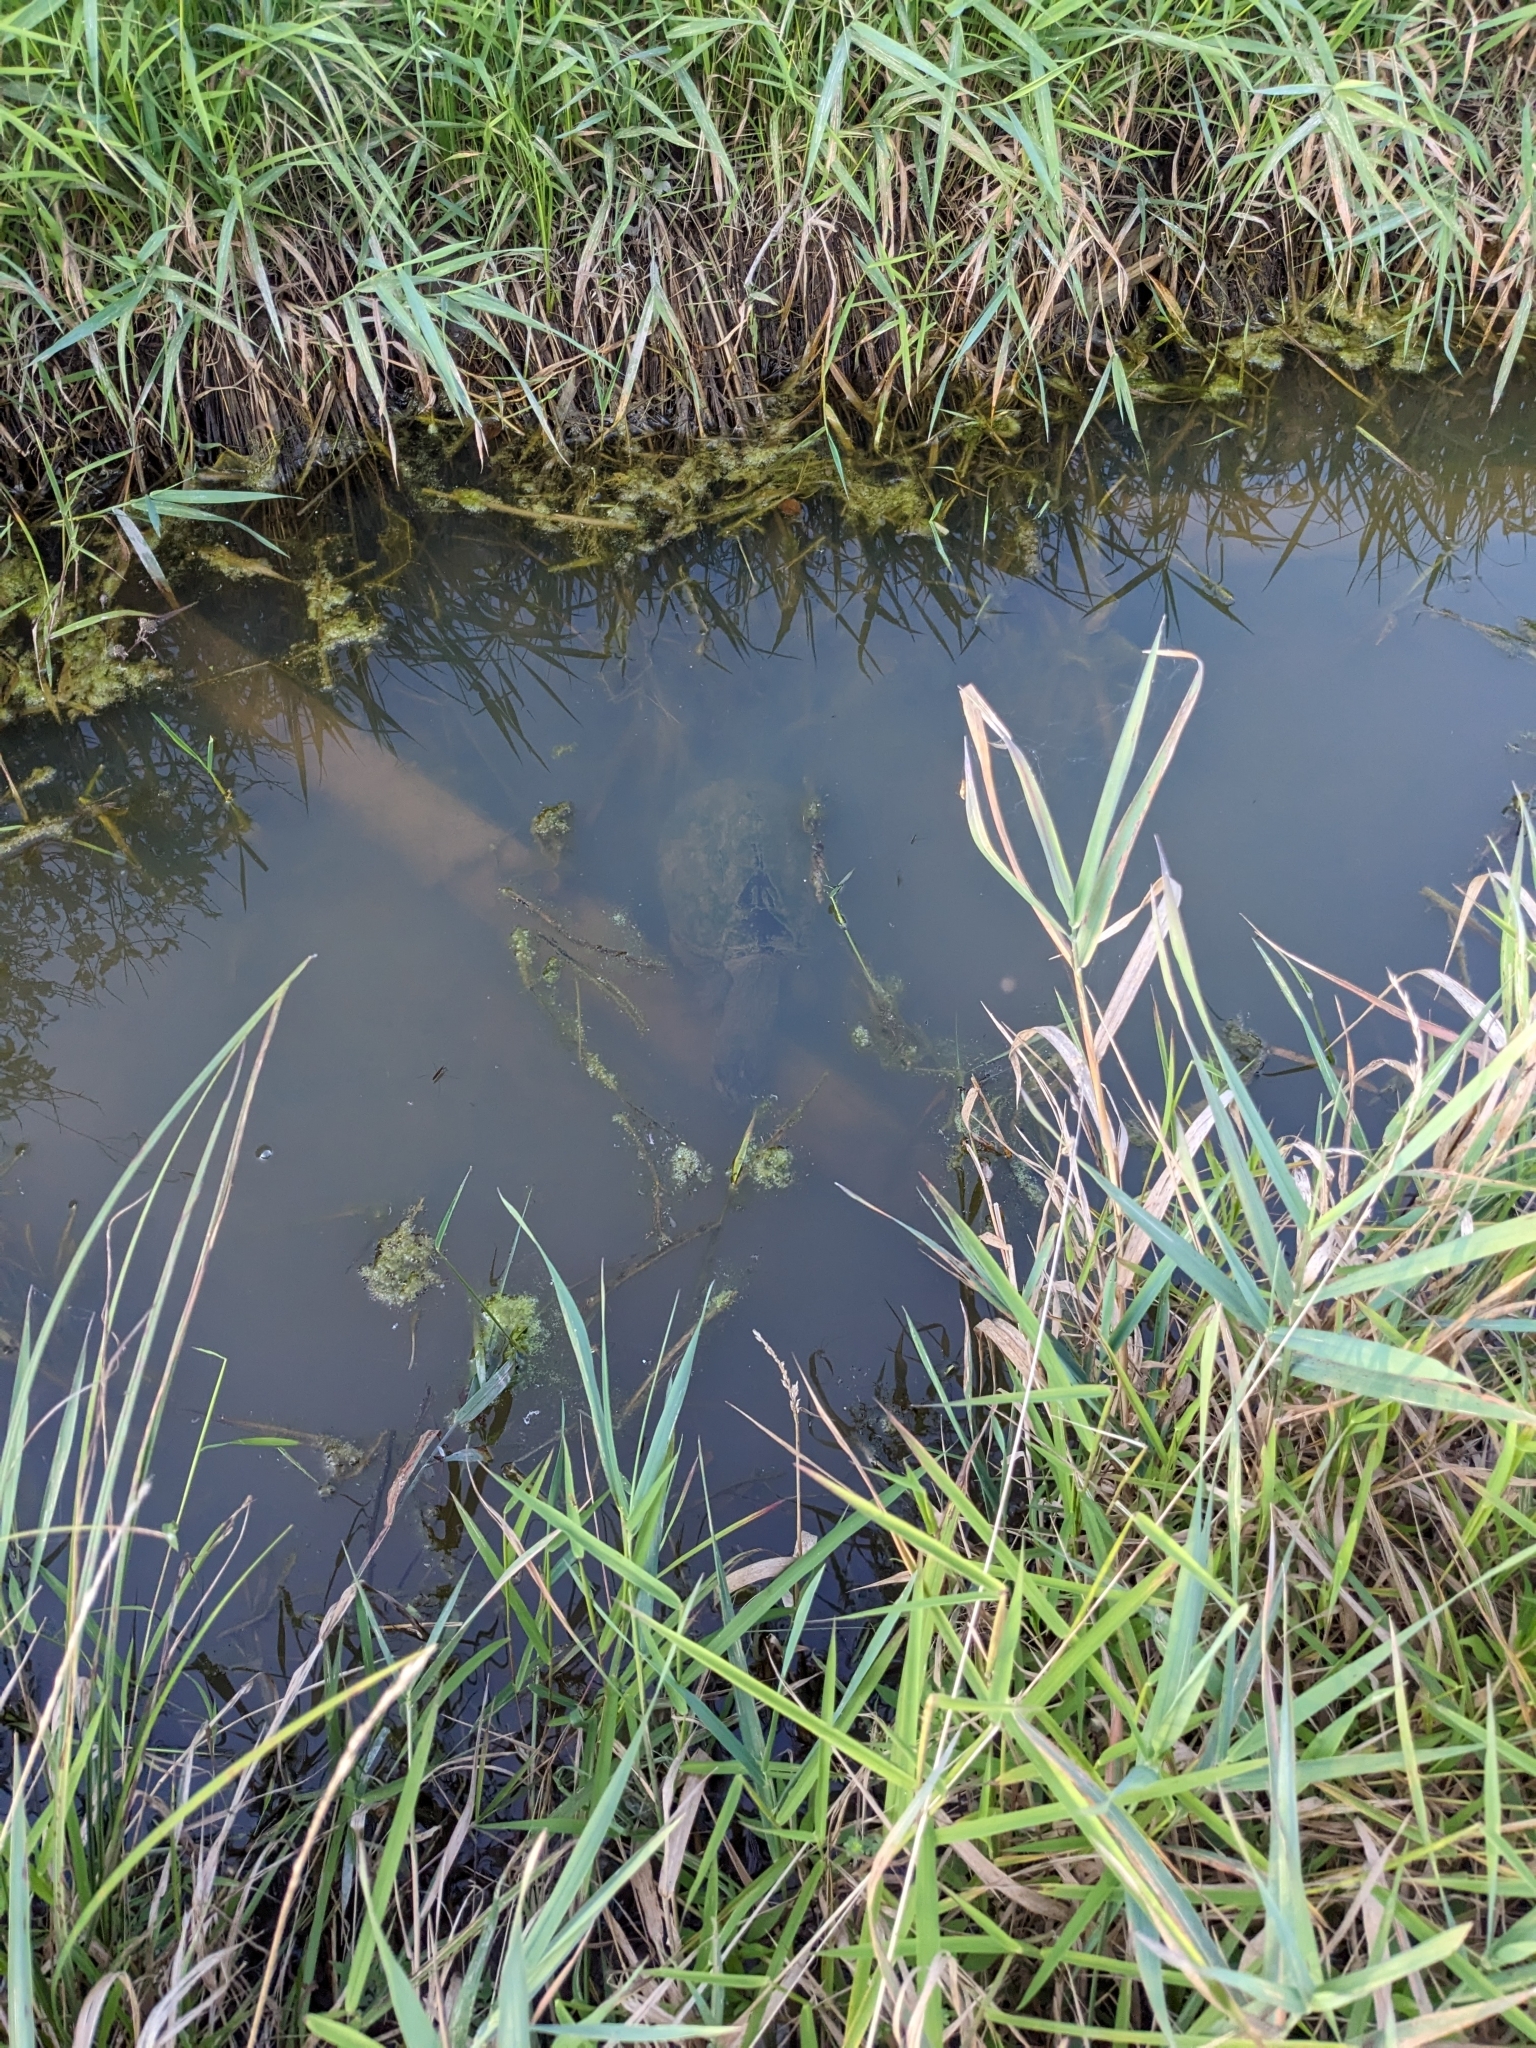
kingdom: Animalia
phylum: Chordata
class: Testudines
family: Chelydridae
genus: Chelydra
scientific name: Chelydra serpentina
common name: Common snapping turtle
